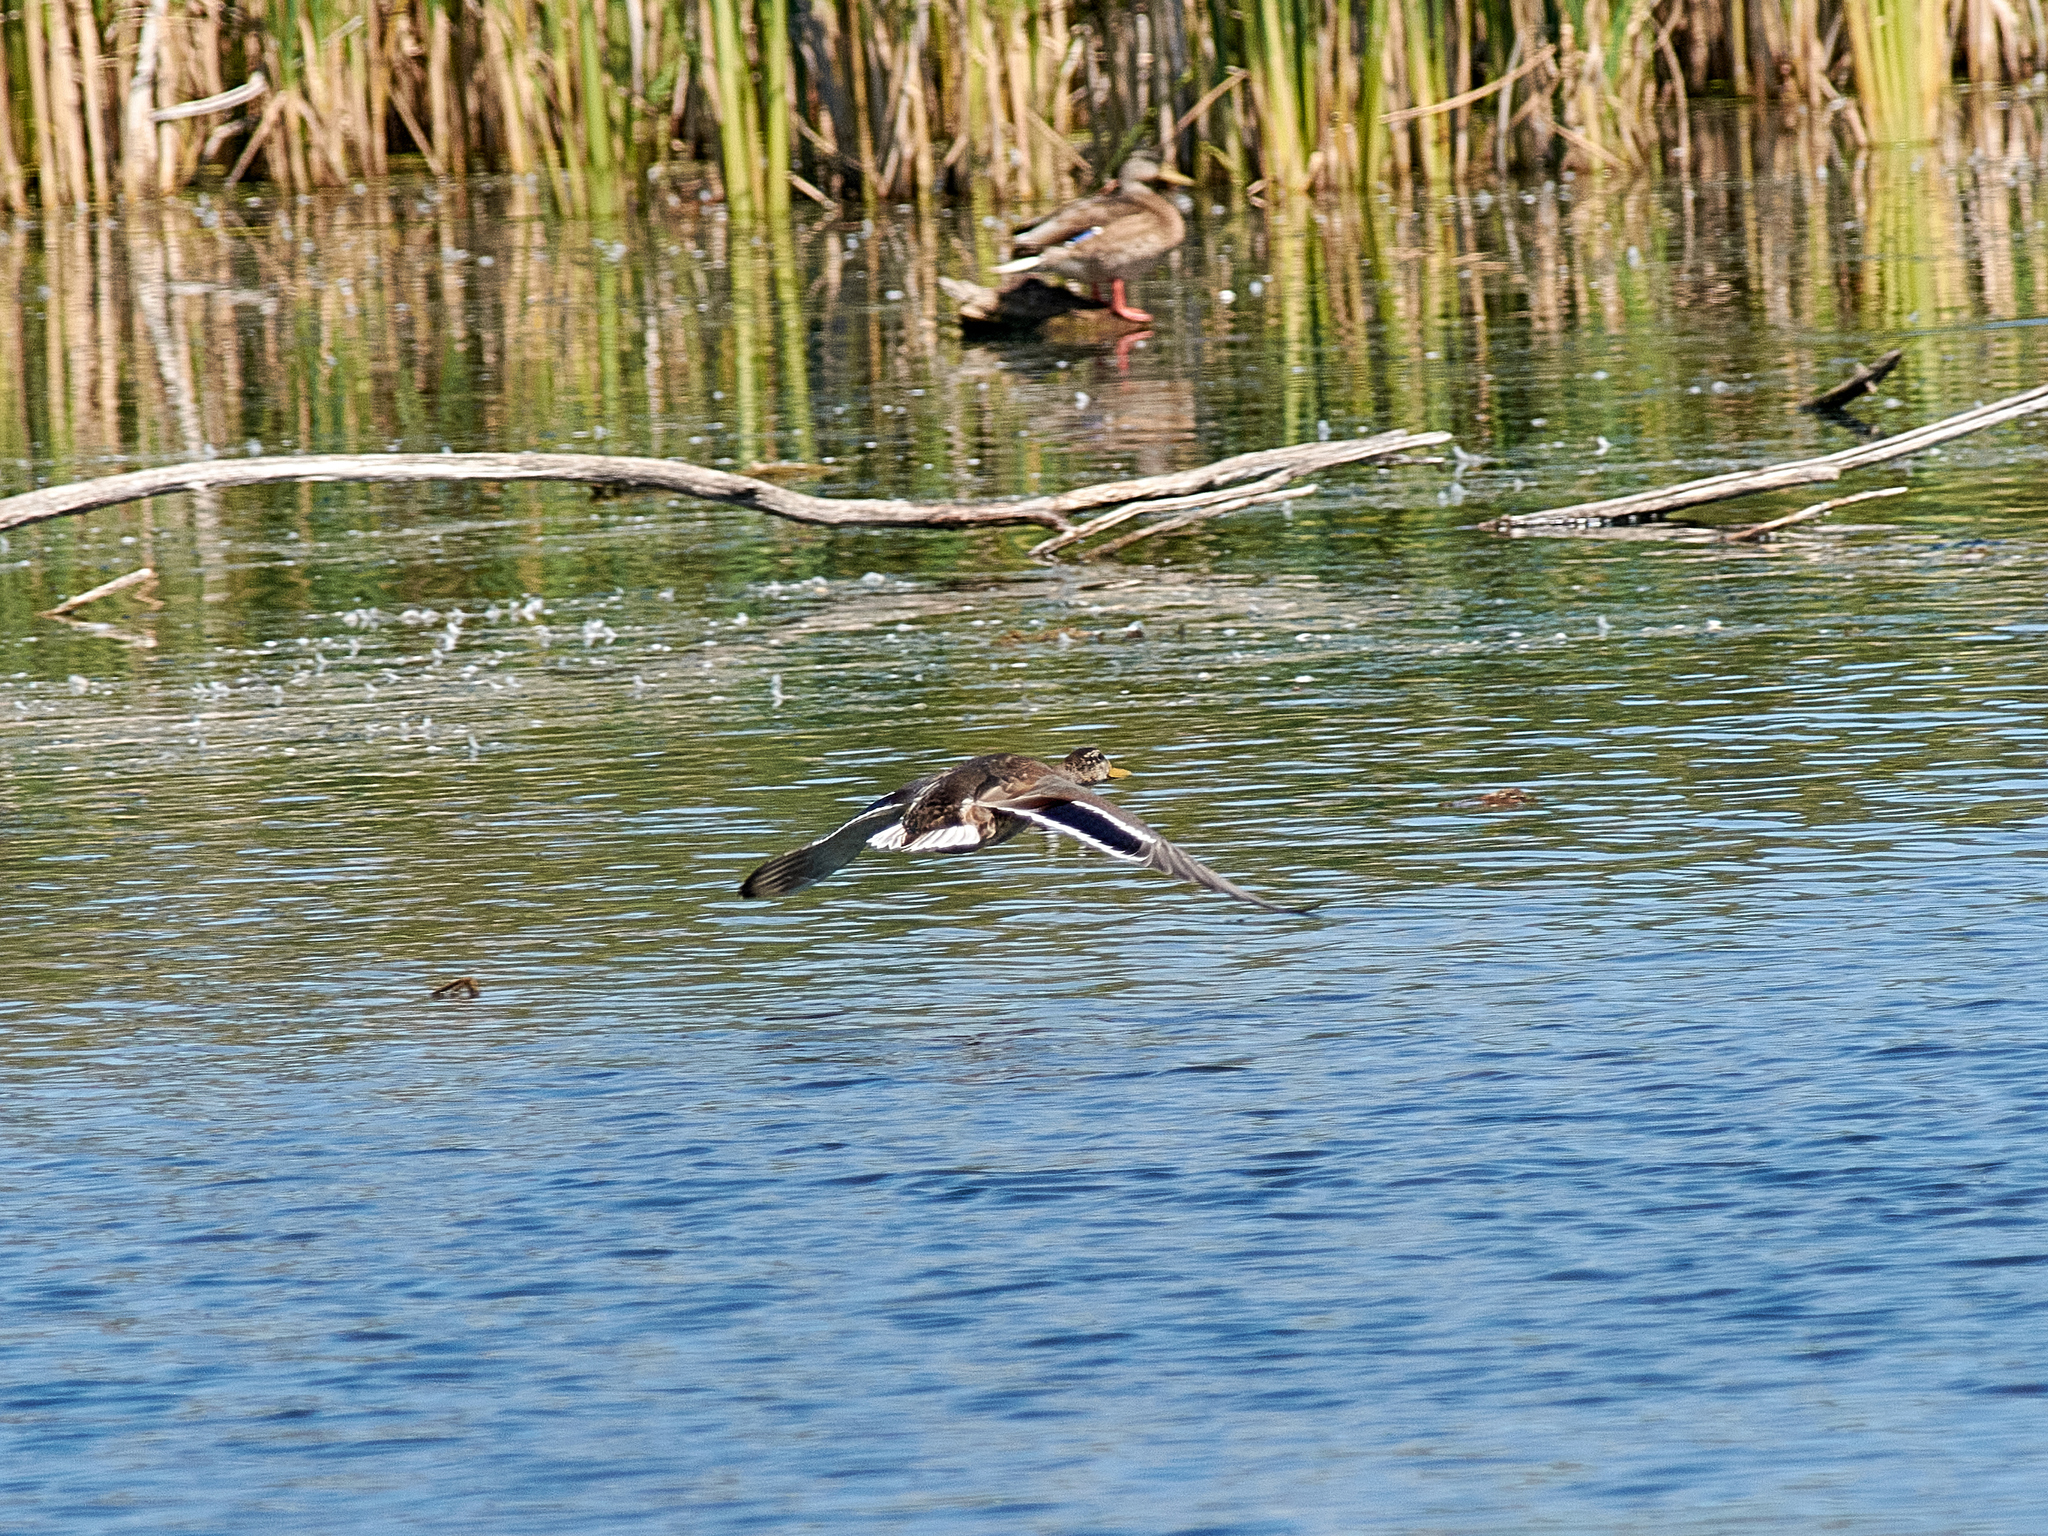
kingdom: Animalia
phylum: Chordata
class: Aves
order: Anseriformes
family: Anatidae
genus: Anas
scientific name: Anas platyrhynchos
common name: Mallard
